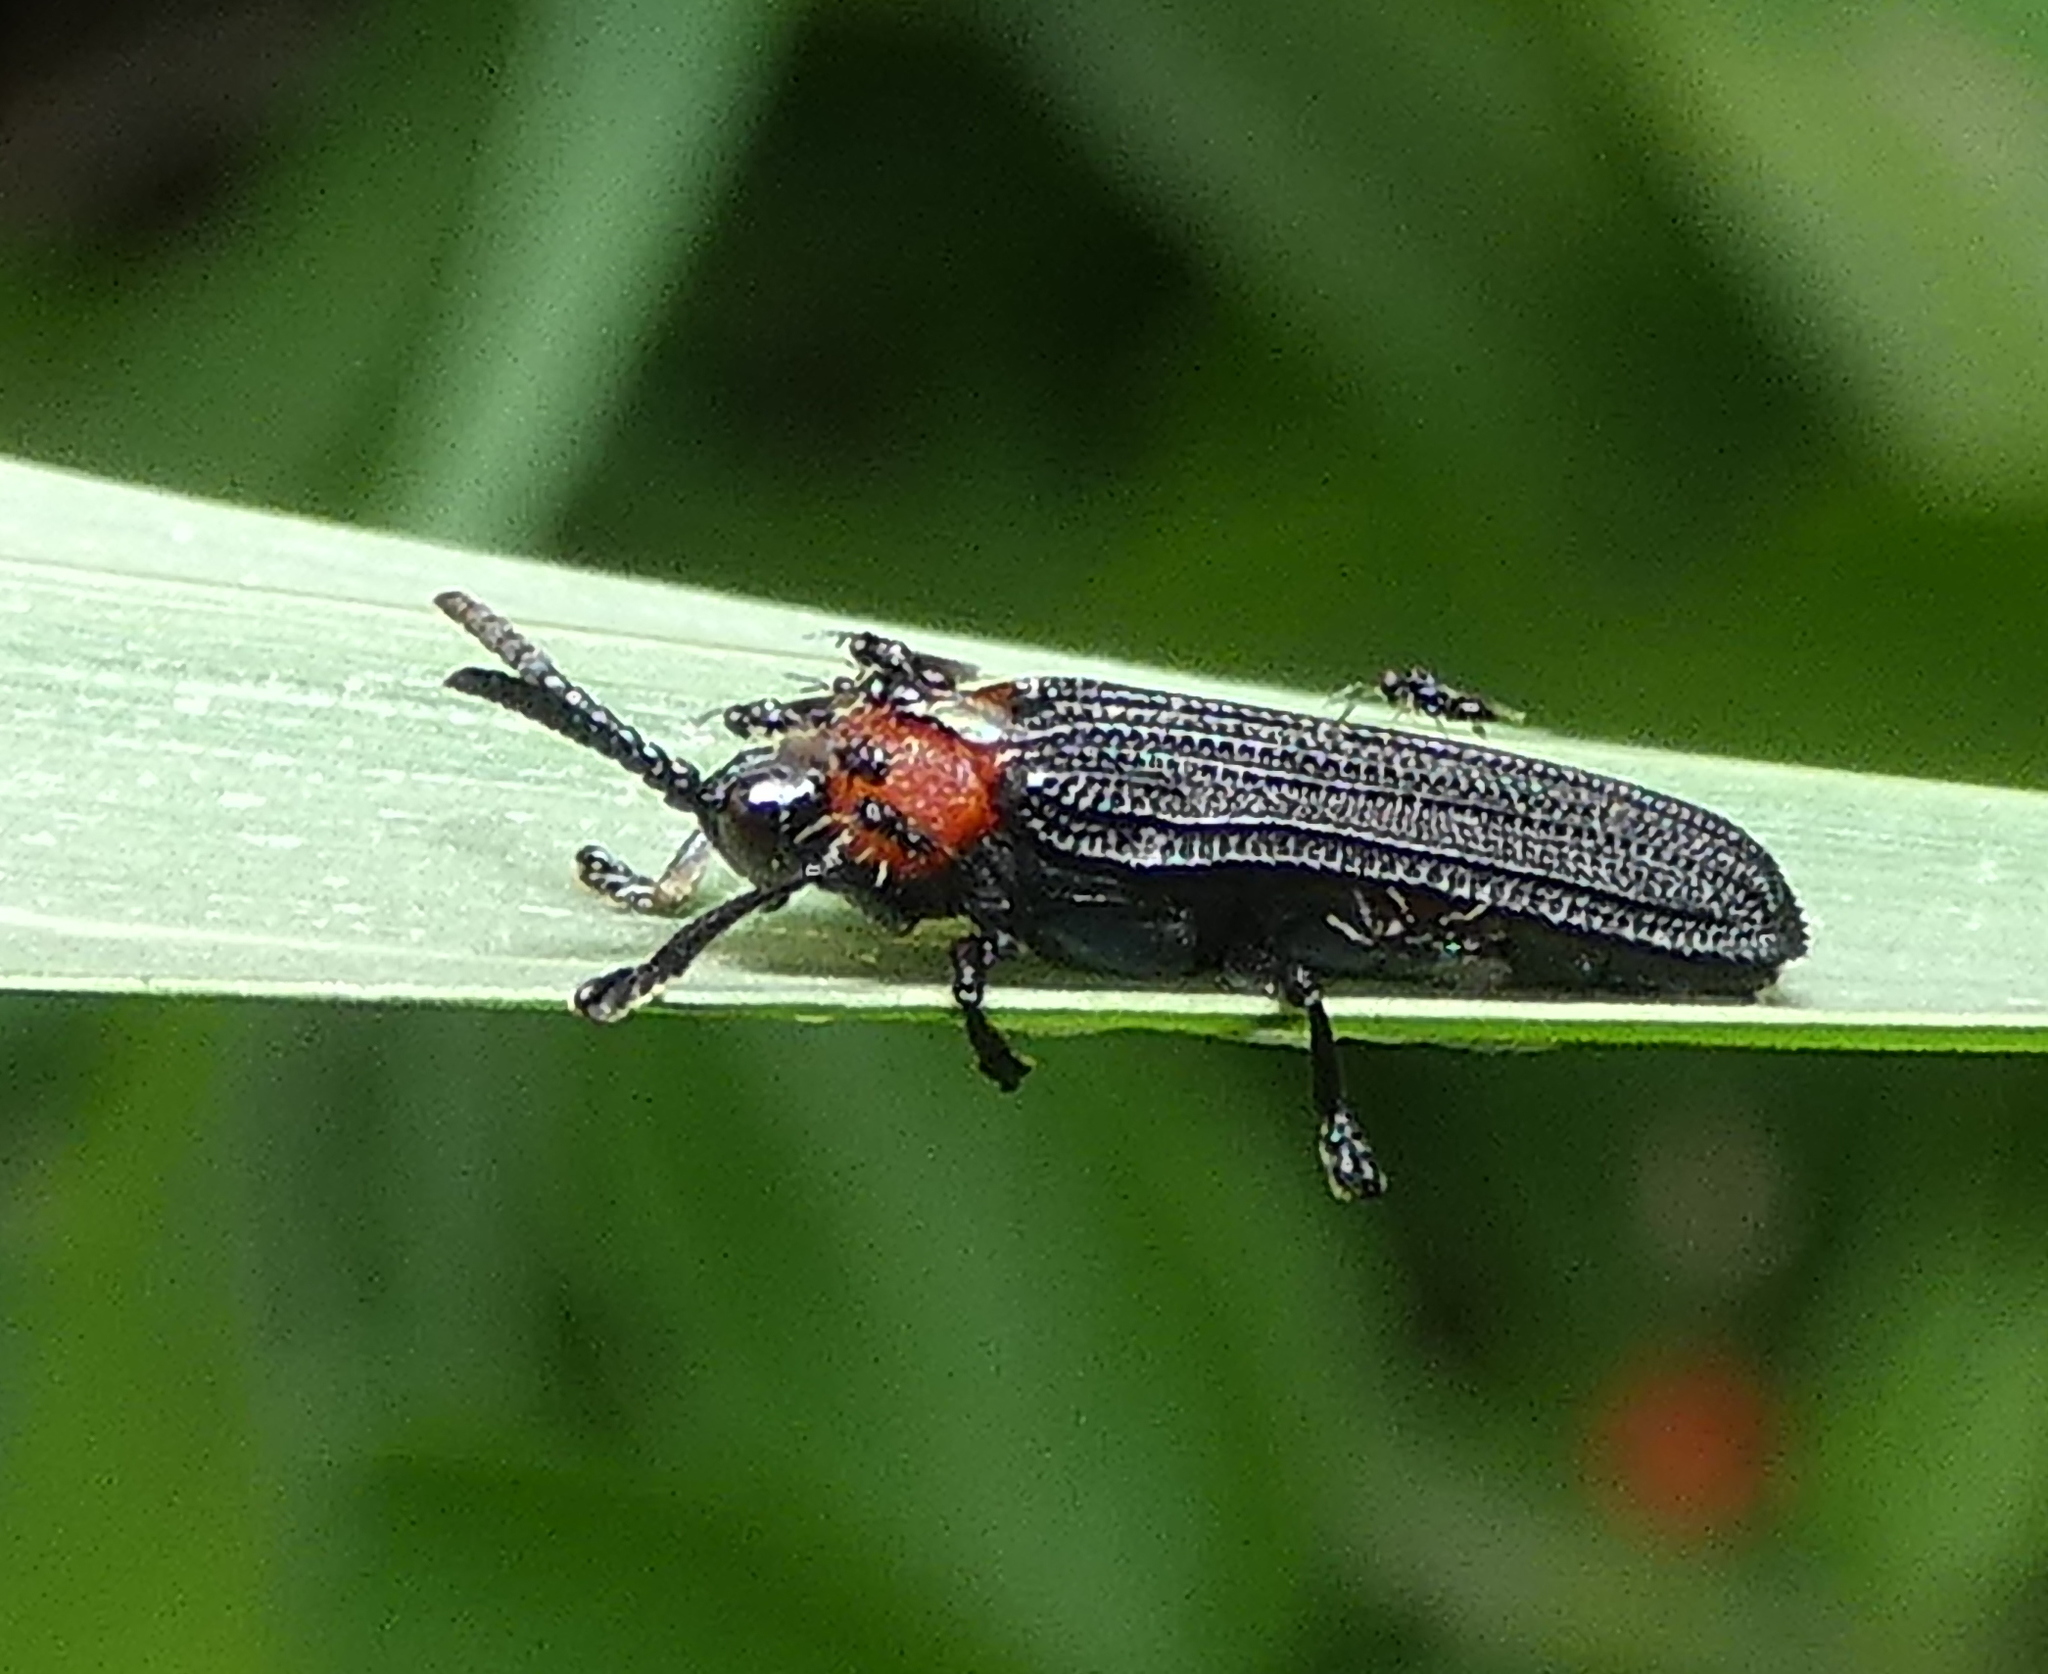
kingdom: Animalia
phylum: Arthropoda
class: Insecta
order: Coleoptera
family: Chrysomelidae
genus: Chalepus
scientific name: Chalepus notula
